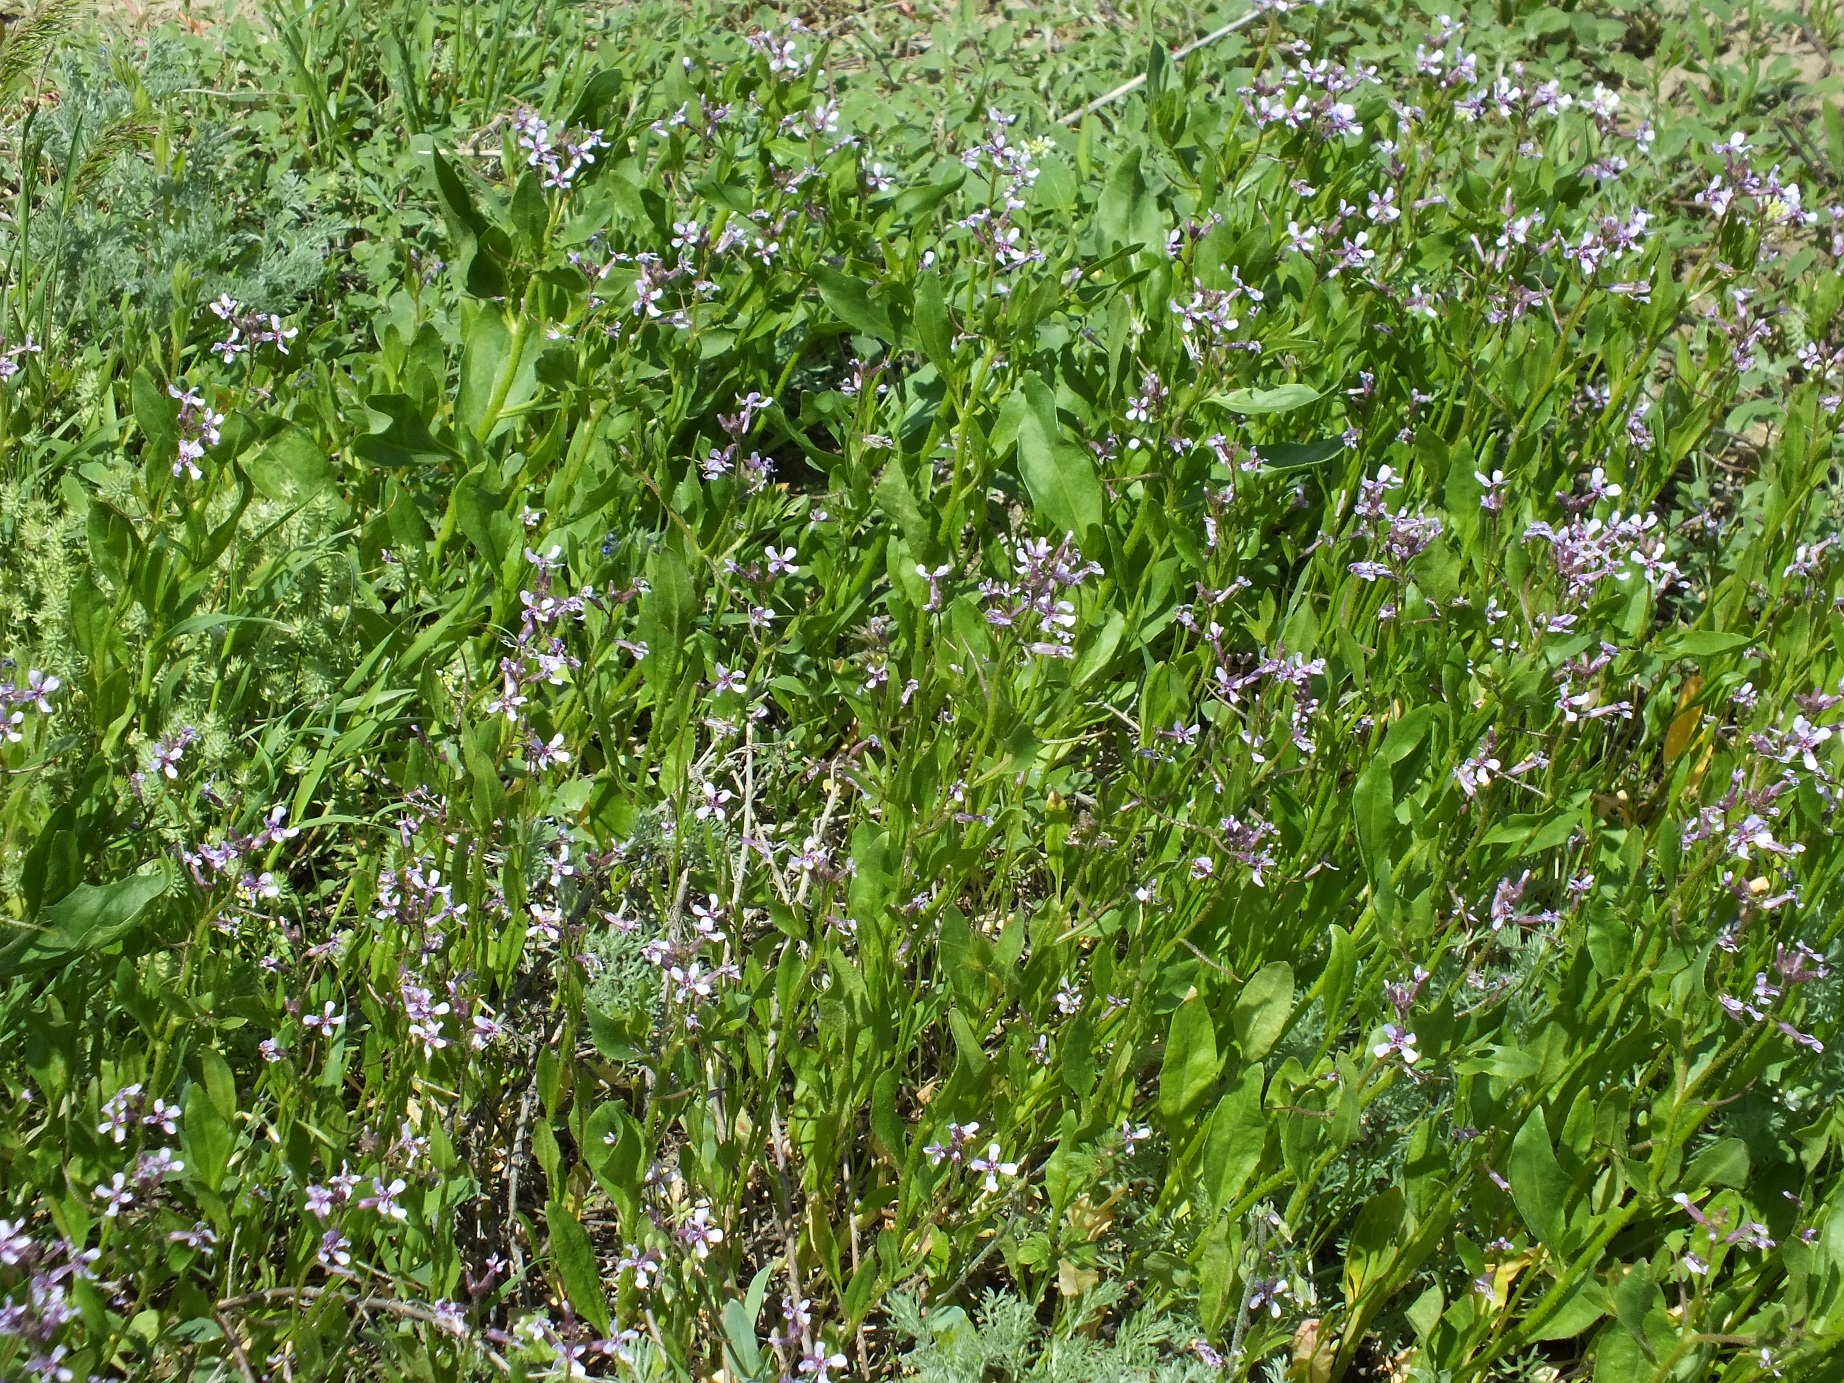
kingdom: Plantae
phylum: Tracheophyta
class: Magnoliopsida
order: Brassicales
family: Brassicaceae
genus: Chorispora
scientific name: Chorispora tenella
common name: Crossflower
